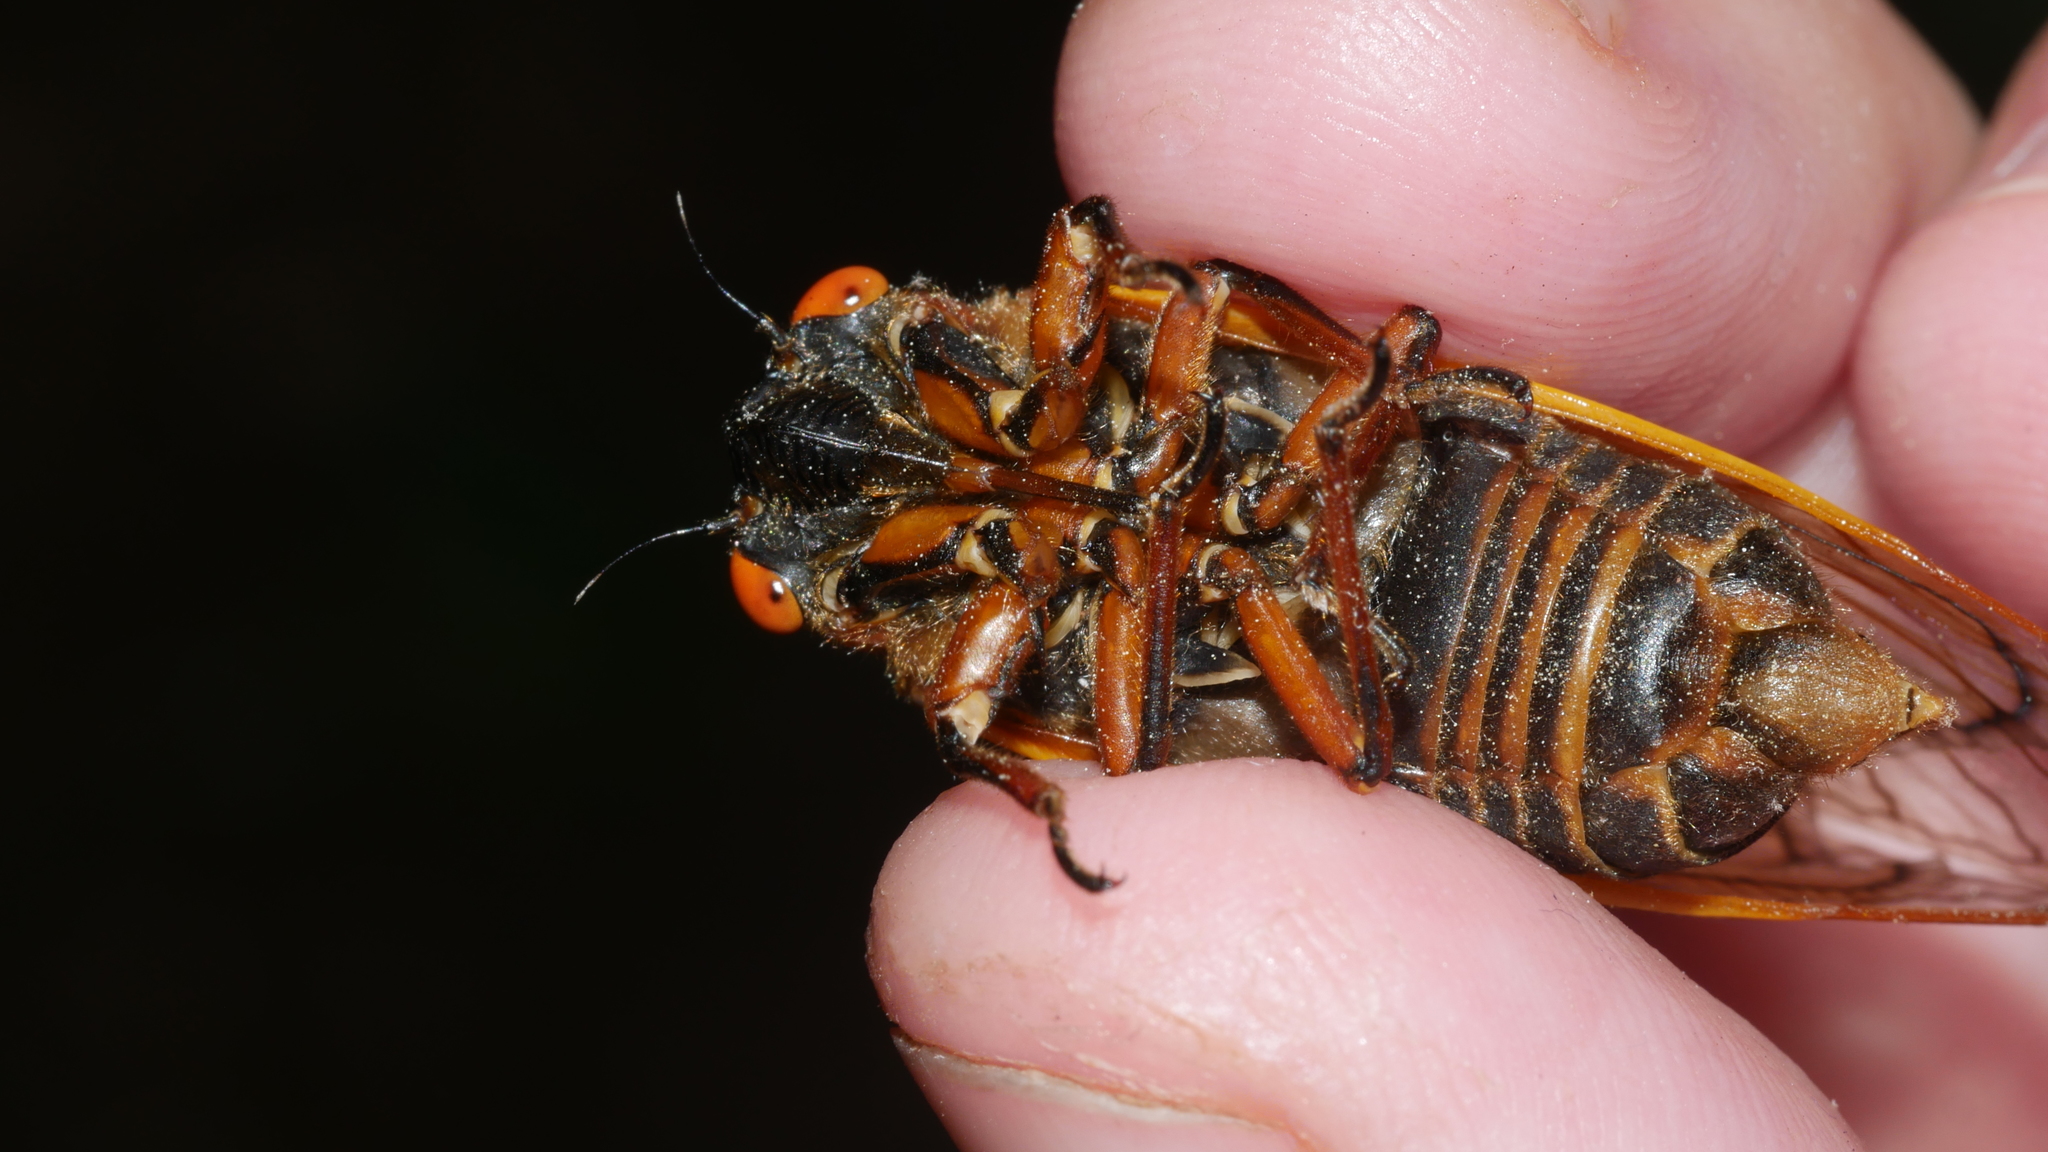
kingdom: Animalia
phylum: Arthropoda
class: Insecta
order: Hemiptera
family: Cicadidae
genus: Magicicada
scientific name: Magicicada septendecim
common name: Periodical cicada
